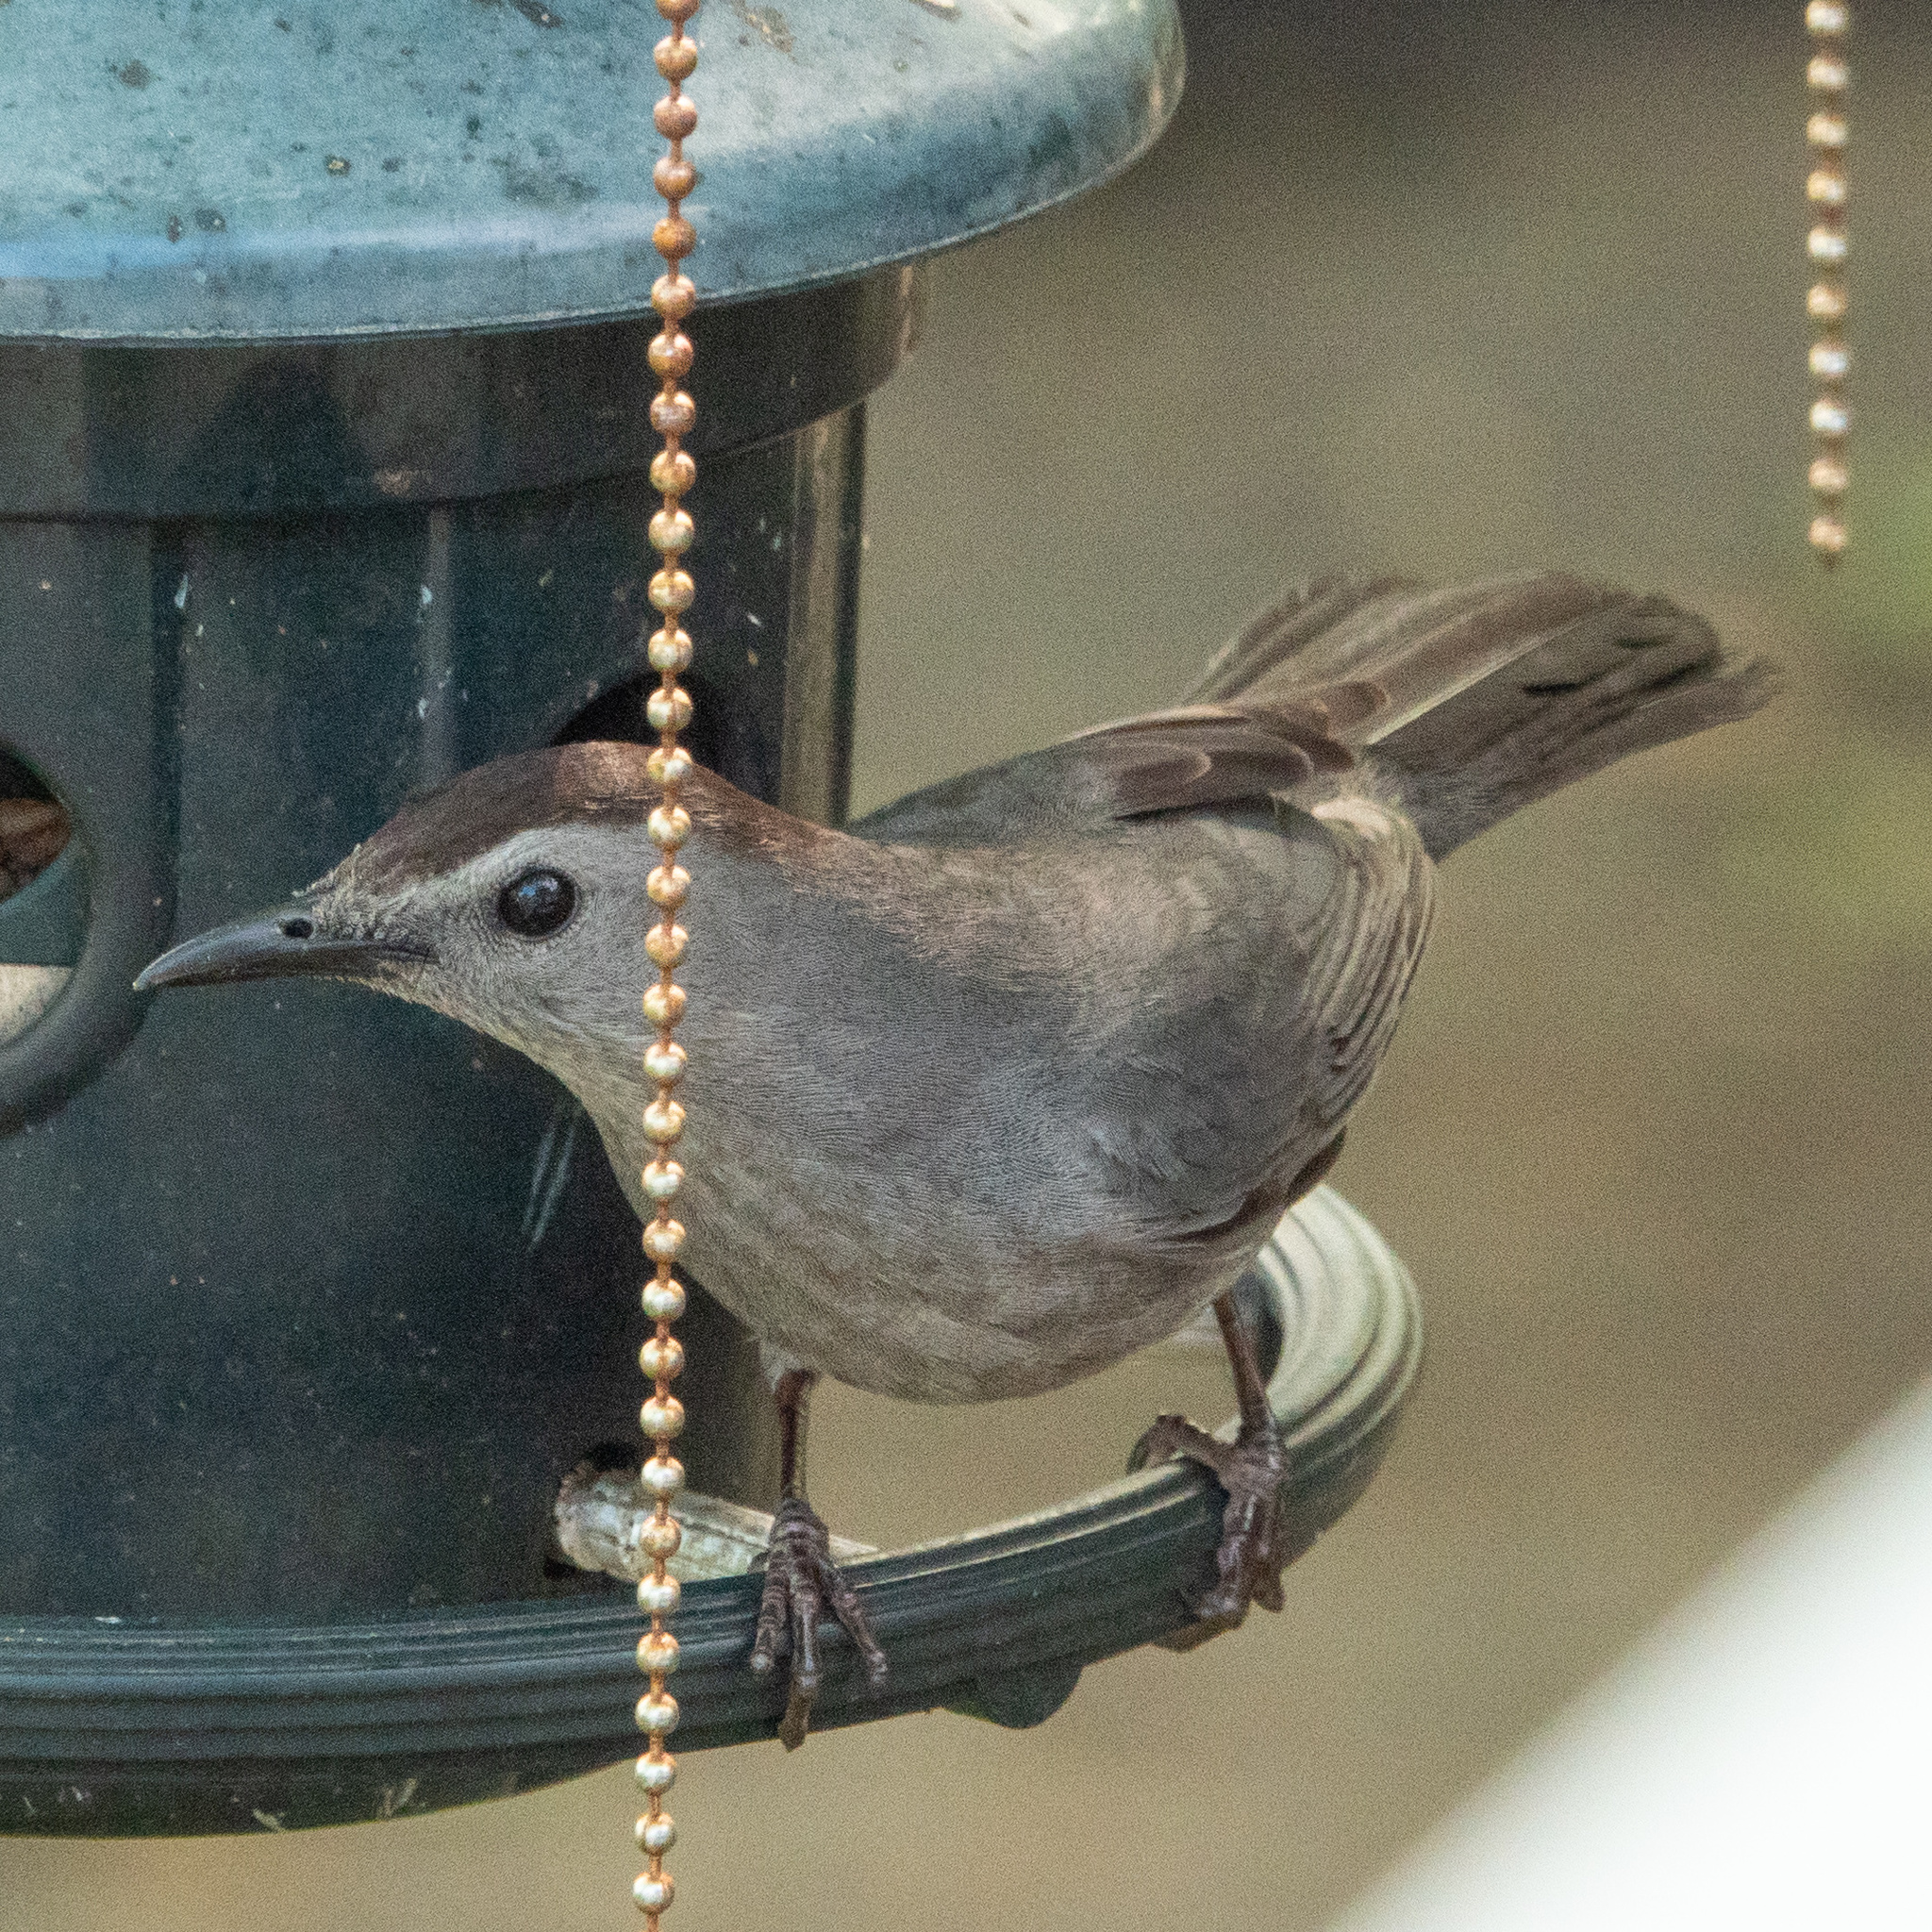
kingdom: Animalia
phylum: Chordata
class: Aves
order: Passeriformes
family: Mimidae
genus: Dumetella
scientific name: Dumetella carolinensis
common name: Gray catbird
